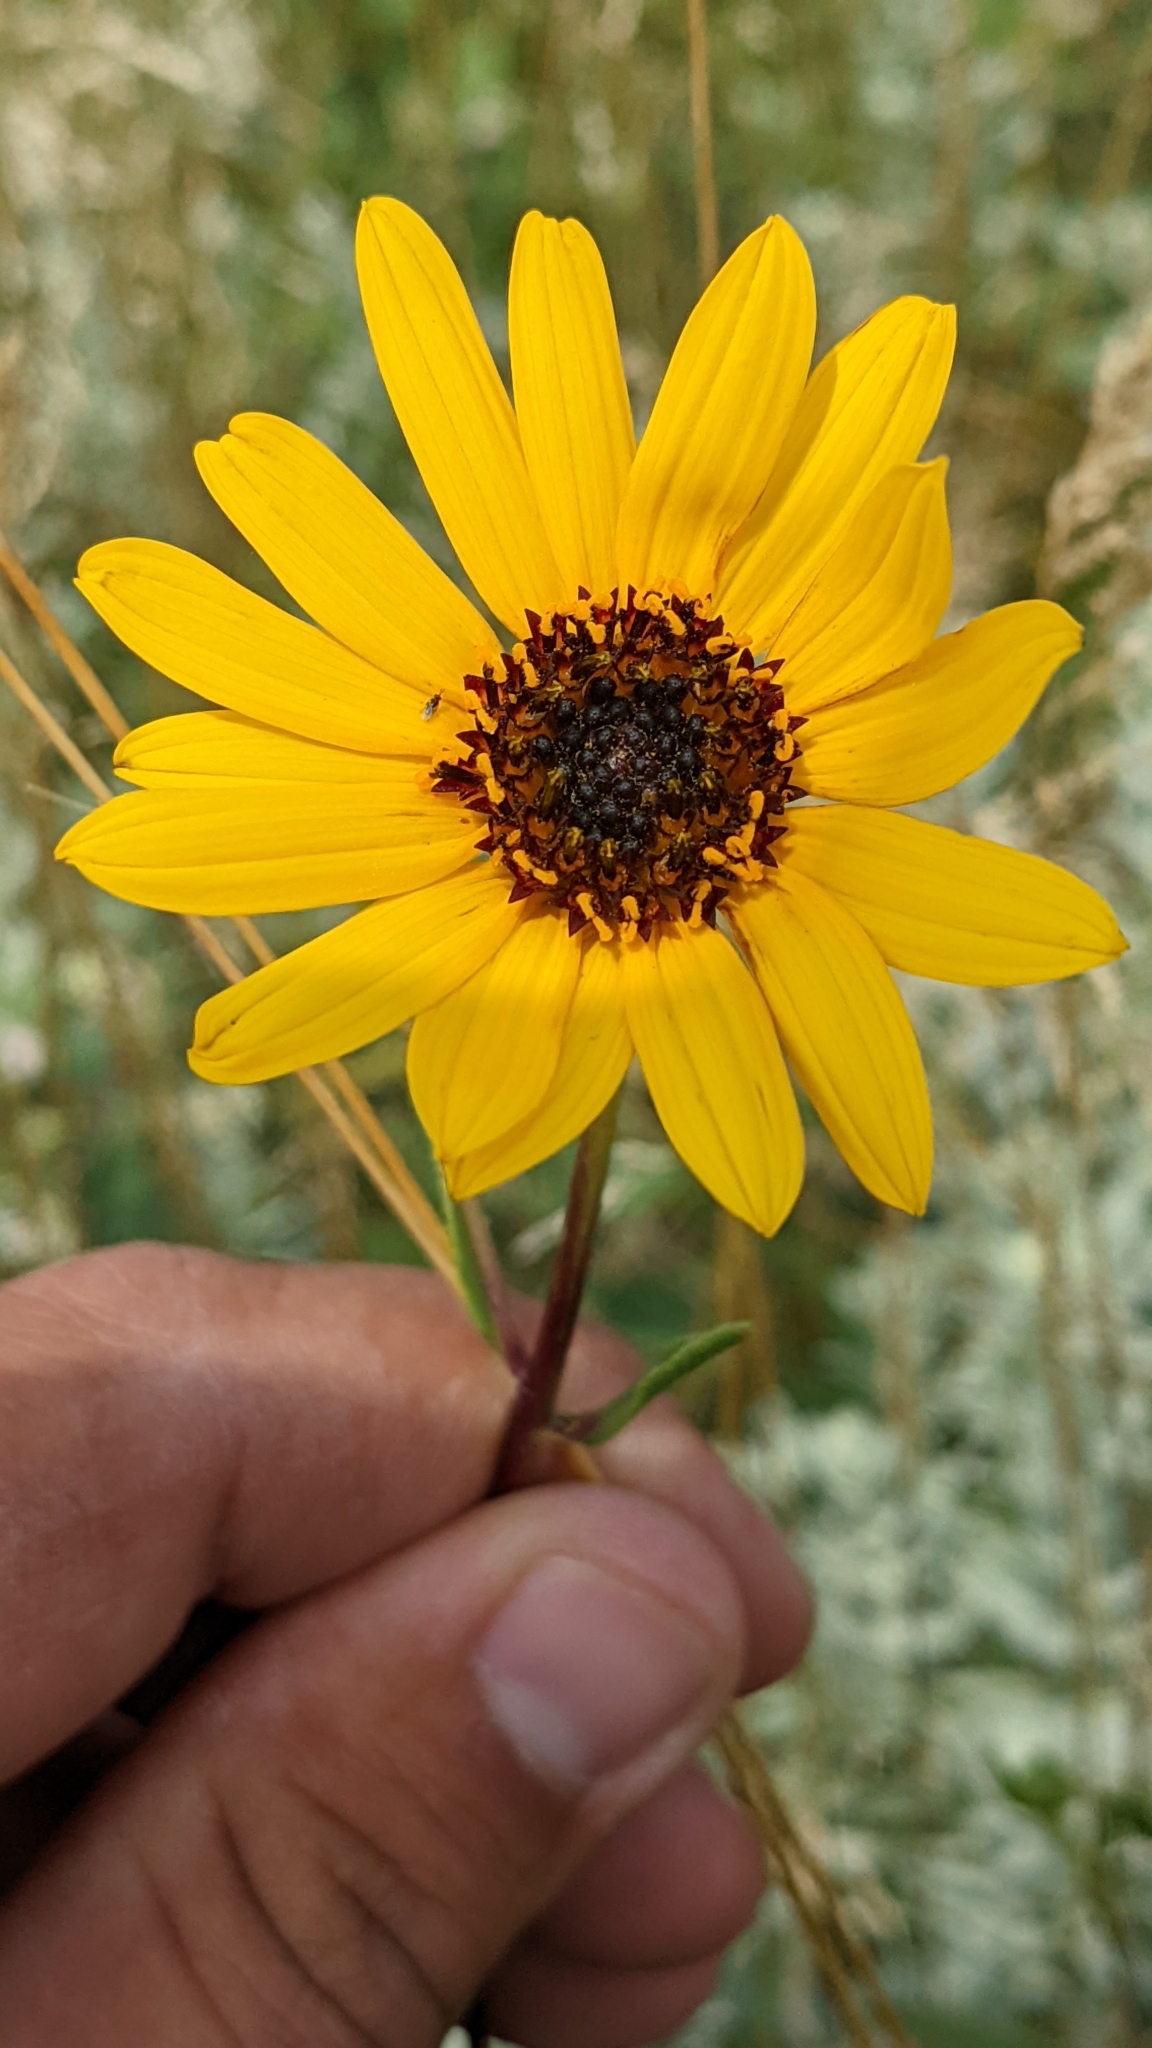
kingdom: Plantae
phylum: Tracheophyta
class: Magnoliopsida
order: Asterales
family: Asteraceae
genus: Helianthus
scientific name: Helianthus pauciflorus
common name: Stiff sunflower
